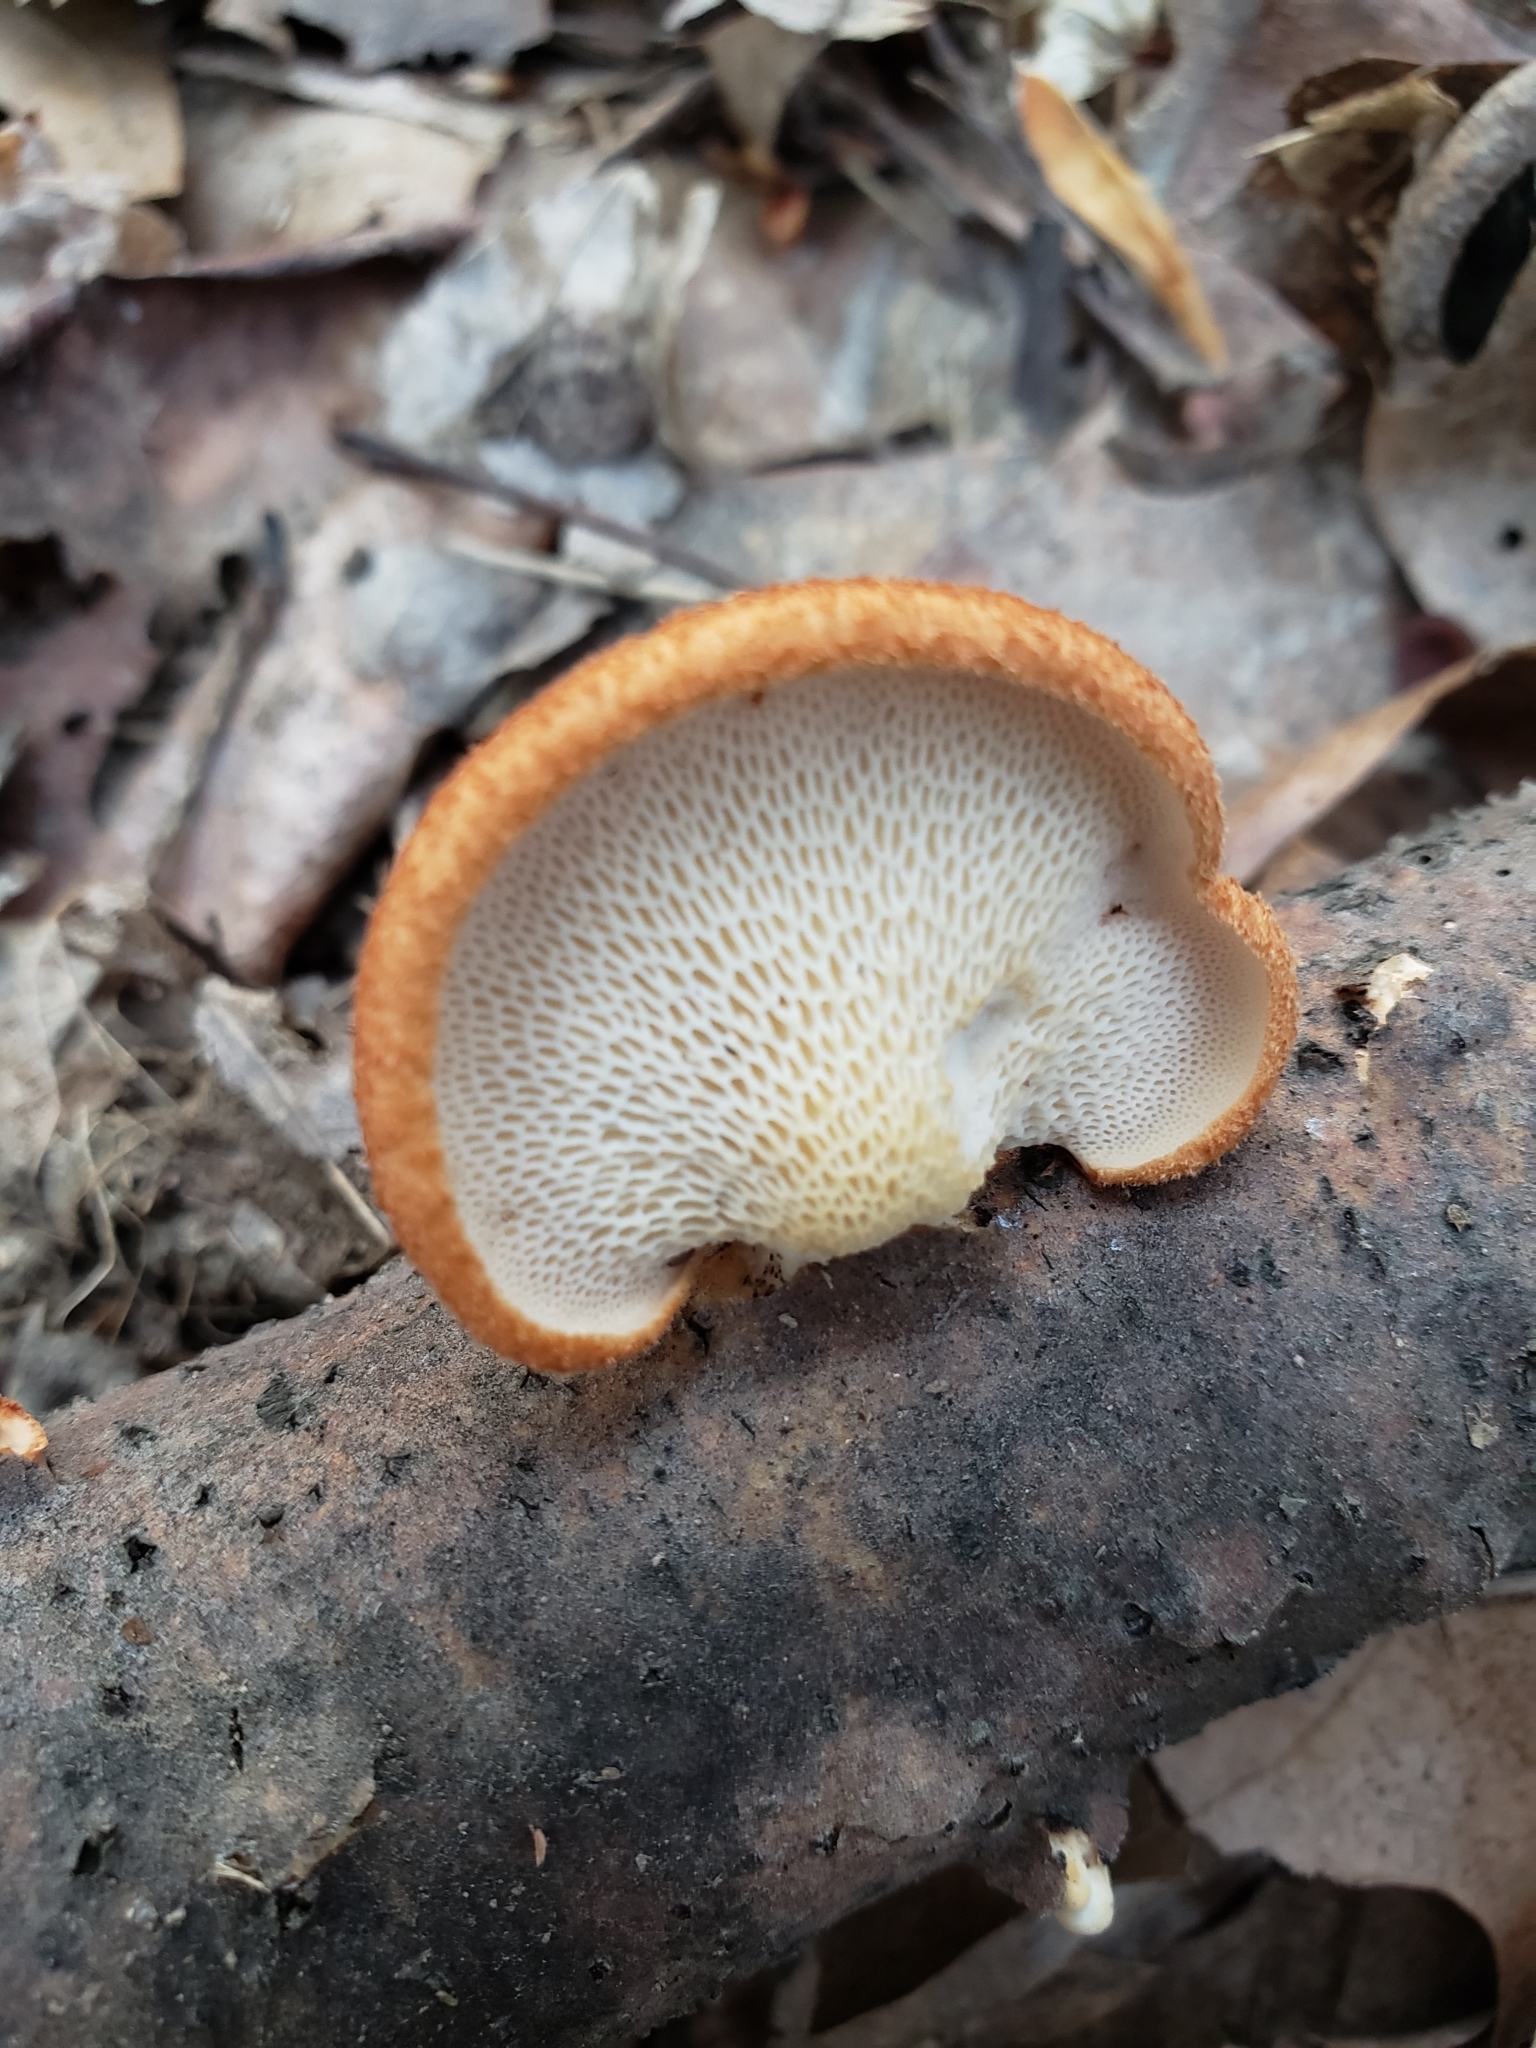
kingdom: Fungi
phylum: Basidiomycota
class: Agaricomycetes
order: Polyporales
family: Polyporaceae
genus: Neofavolus
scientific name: Neofavolus alveolaris
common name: Hexagonal-pored polypore
